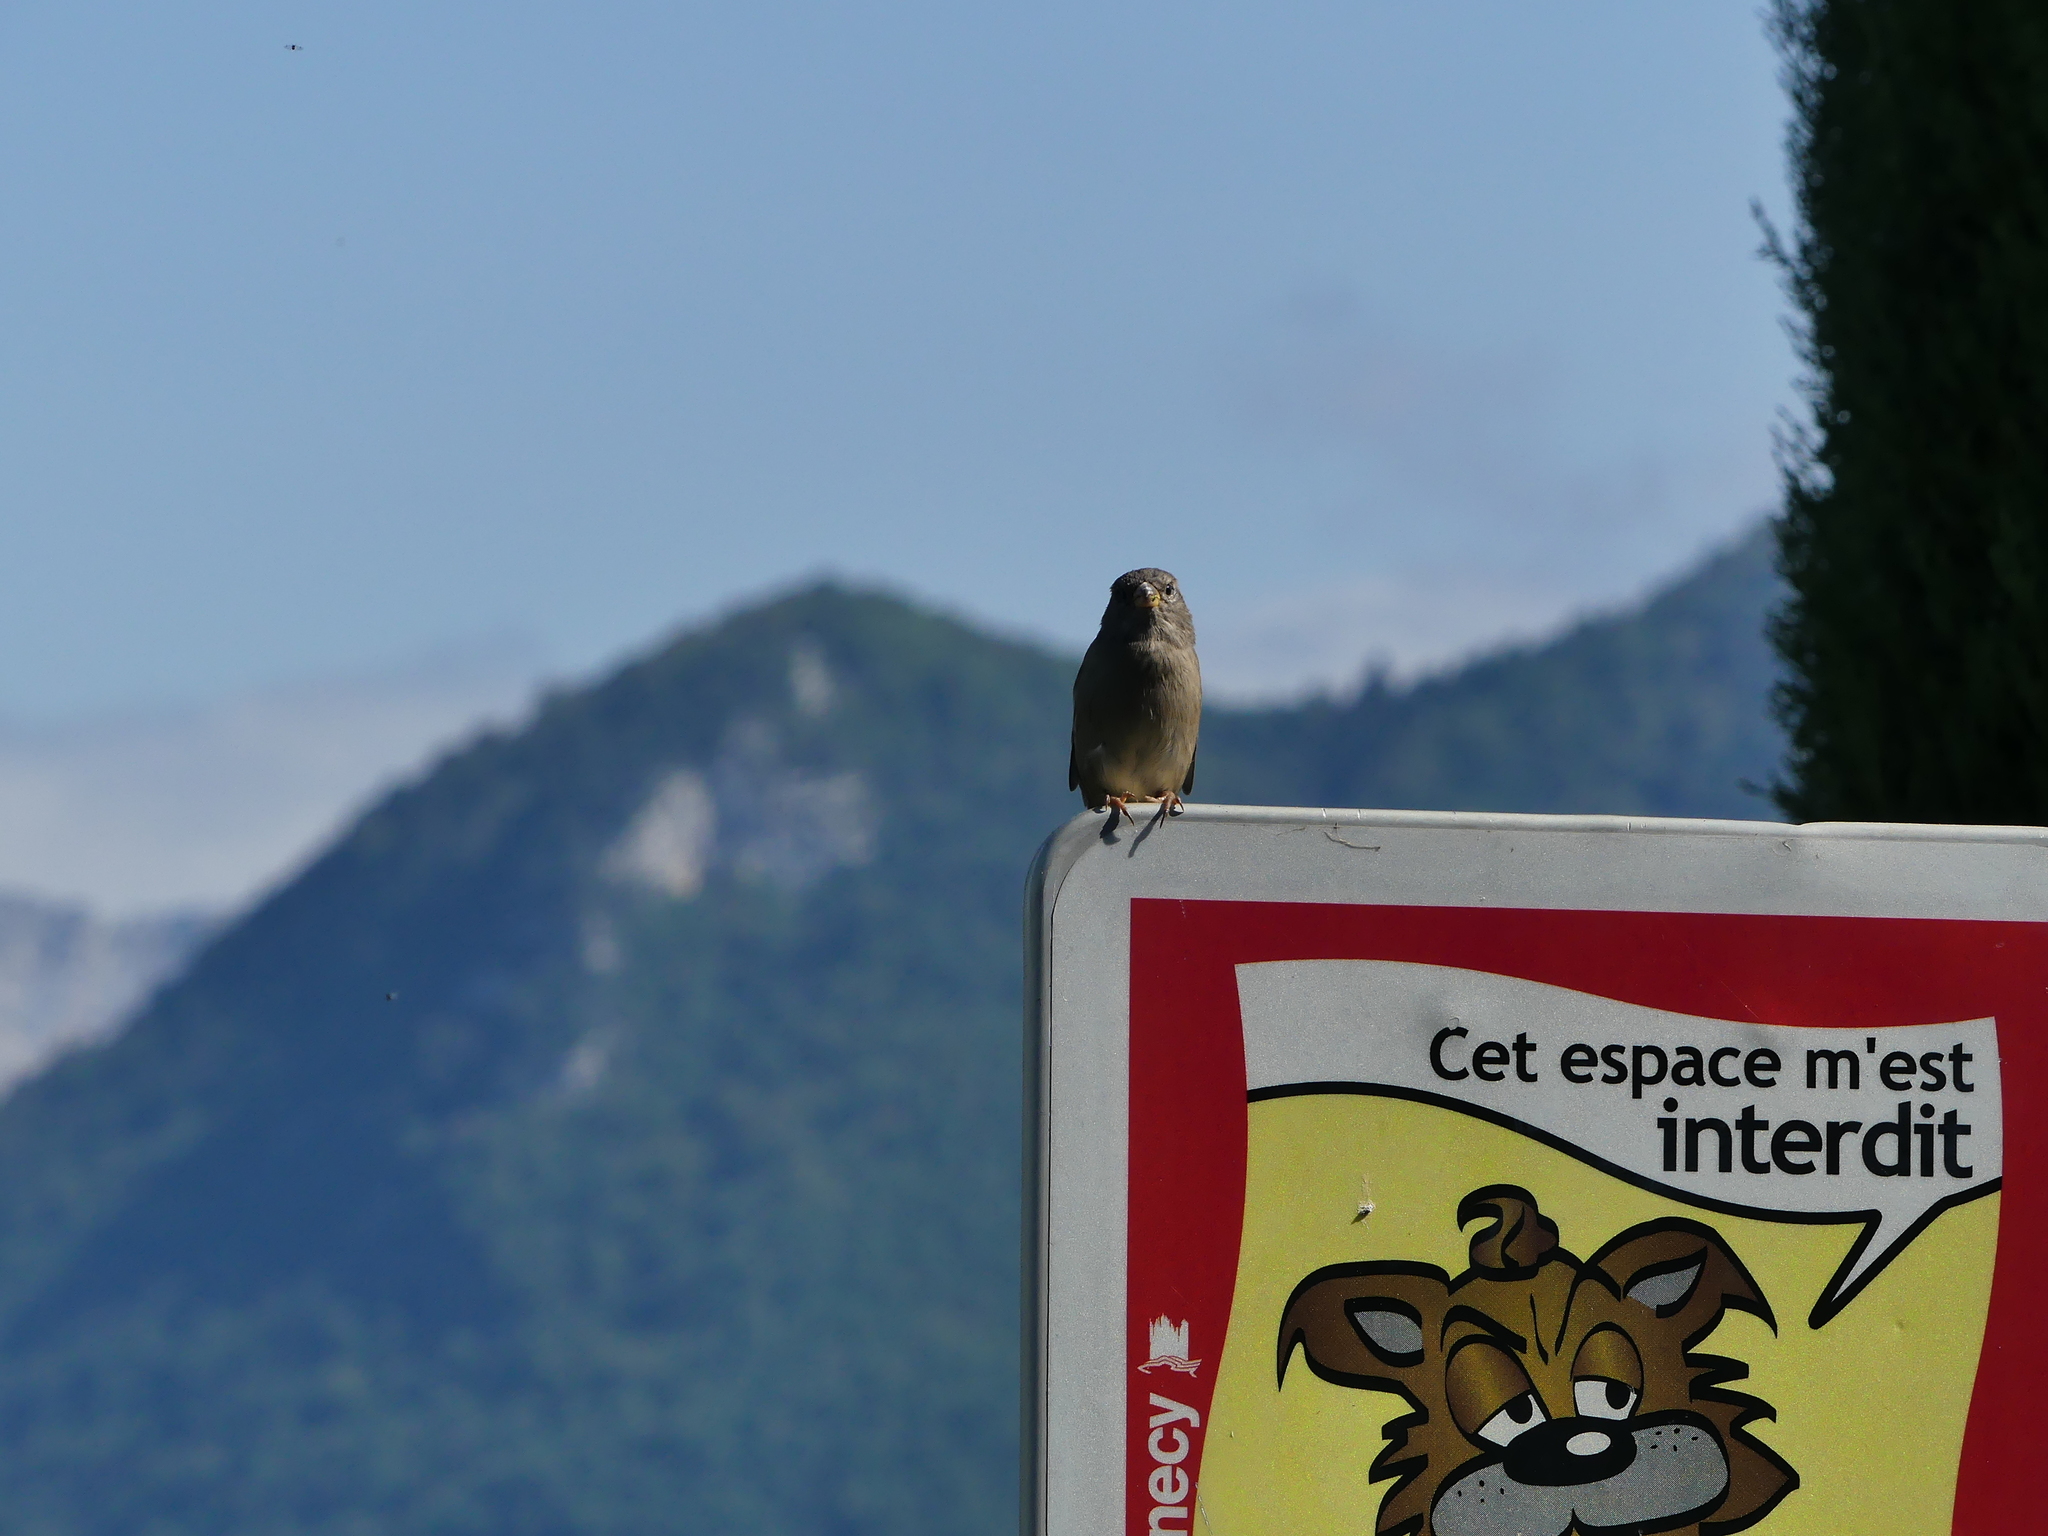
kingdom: Animalia
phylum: Chordata
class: Aves
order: Passeriformes
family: Passeridae
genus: Passer
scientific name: Passer domesticus
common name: House sparrow
